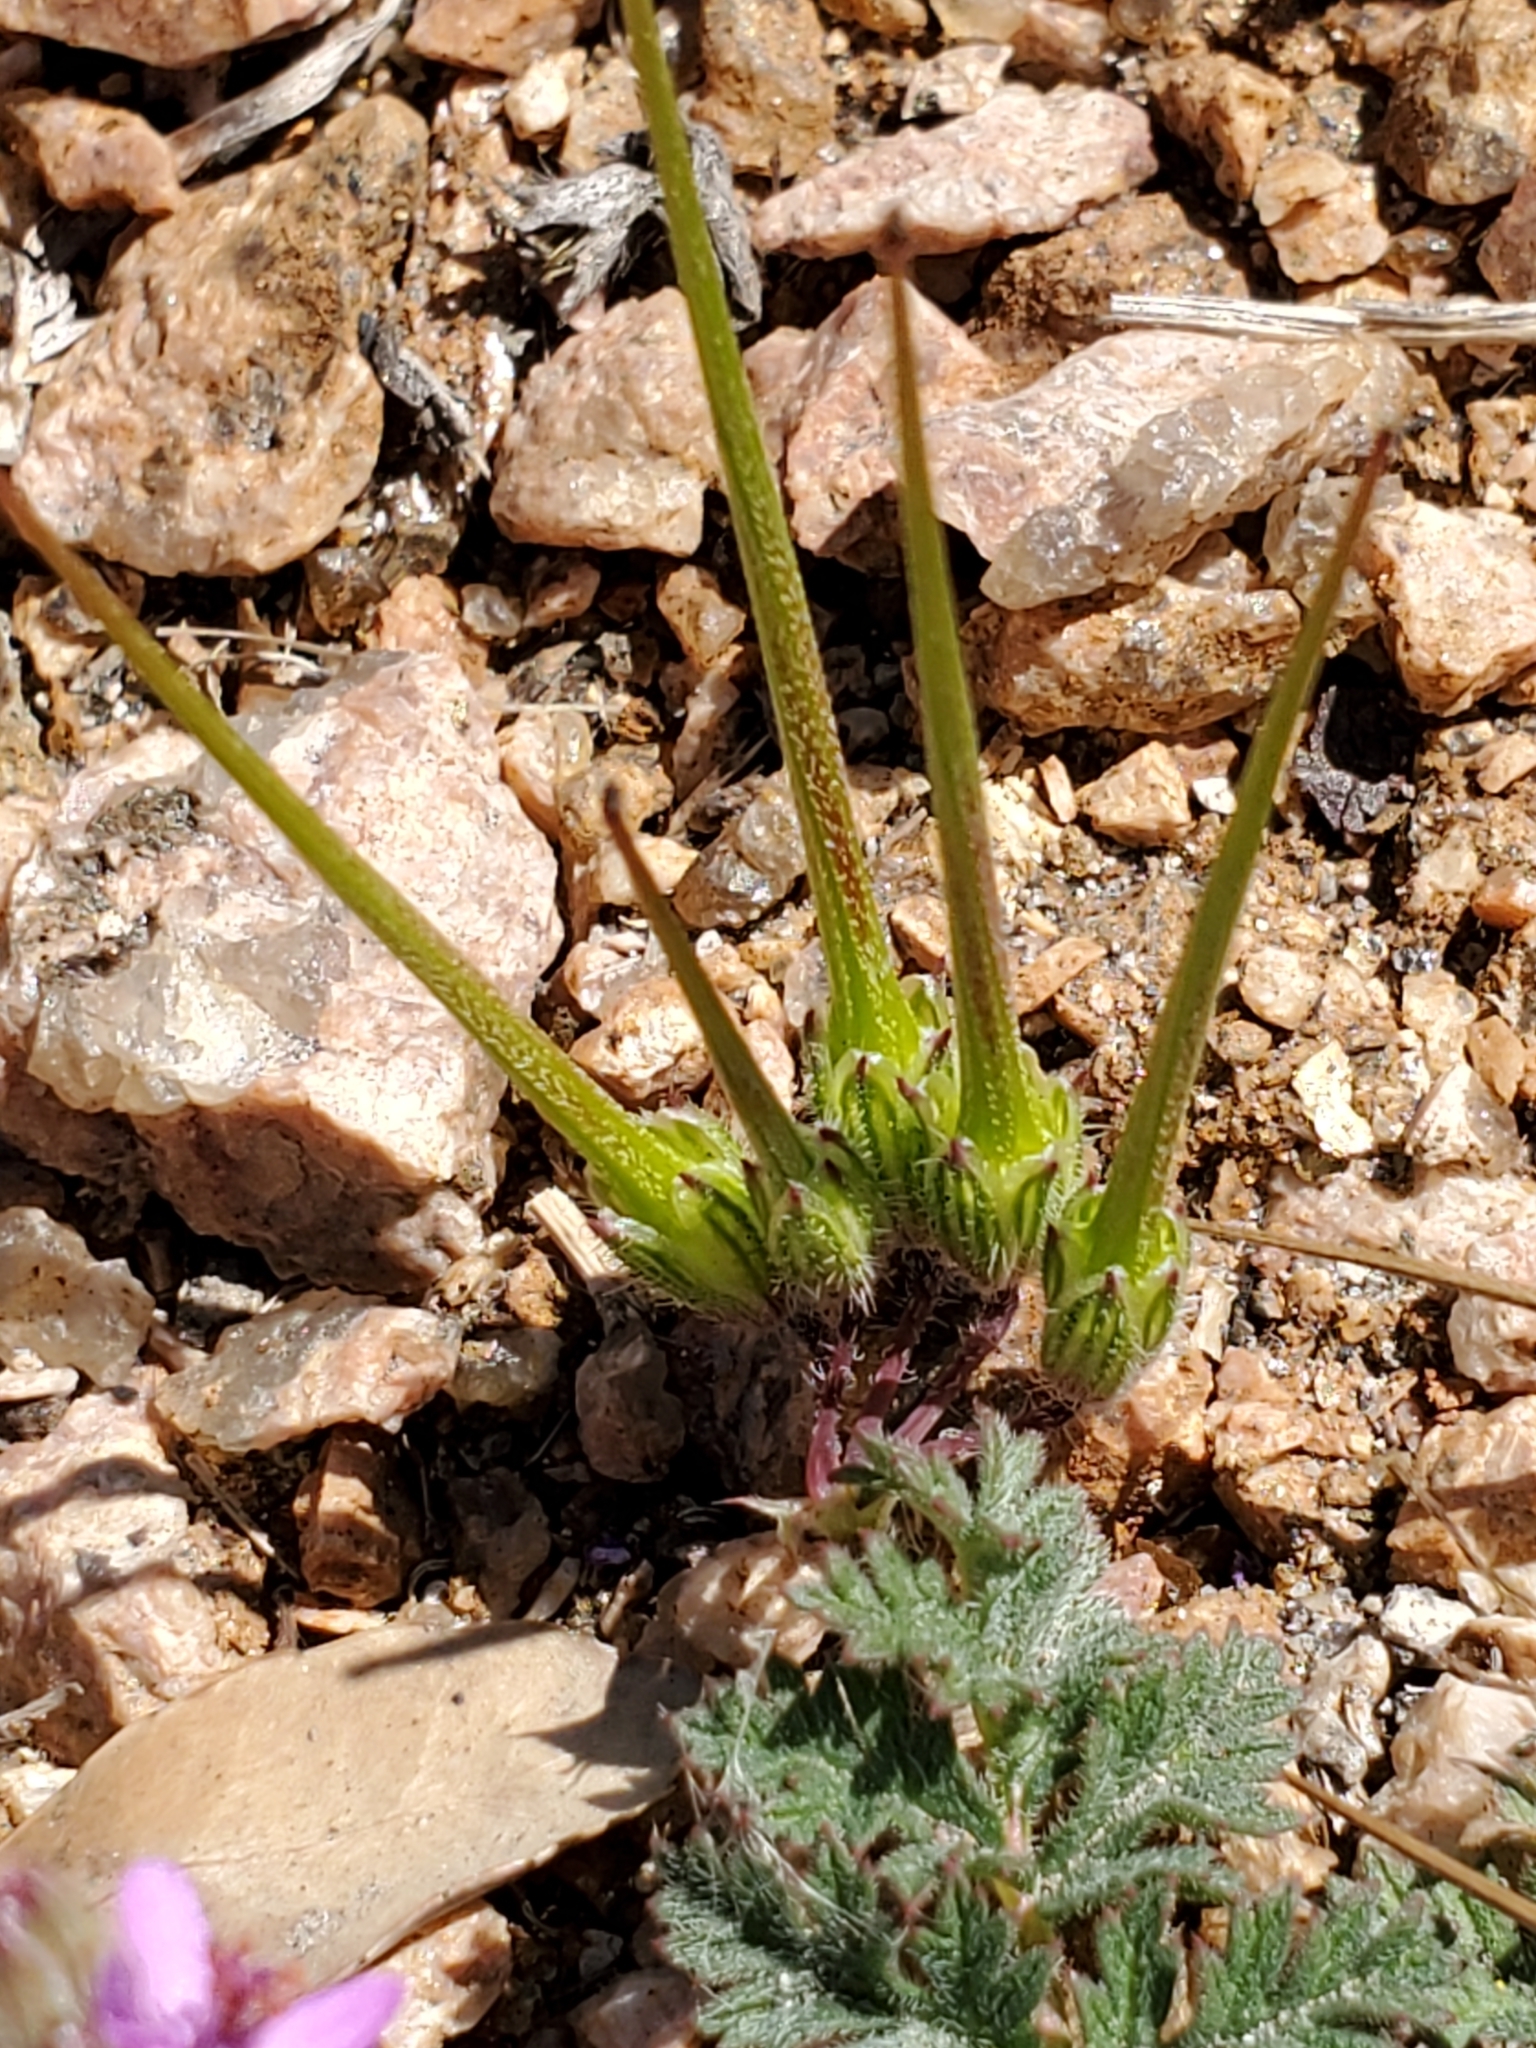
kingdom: Plantae
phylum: Tracheophyta
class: Magnoliopsida
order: Geraniales
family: Geraniaceae
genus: Erodium
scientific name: Erodium cicutarium
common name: Common stork's-bill
